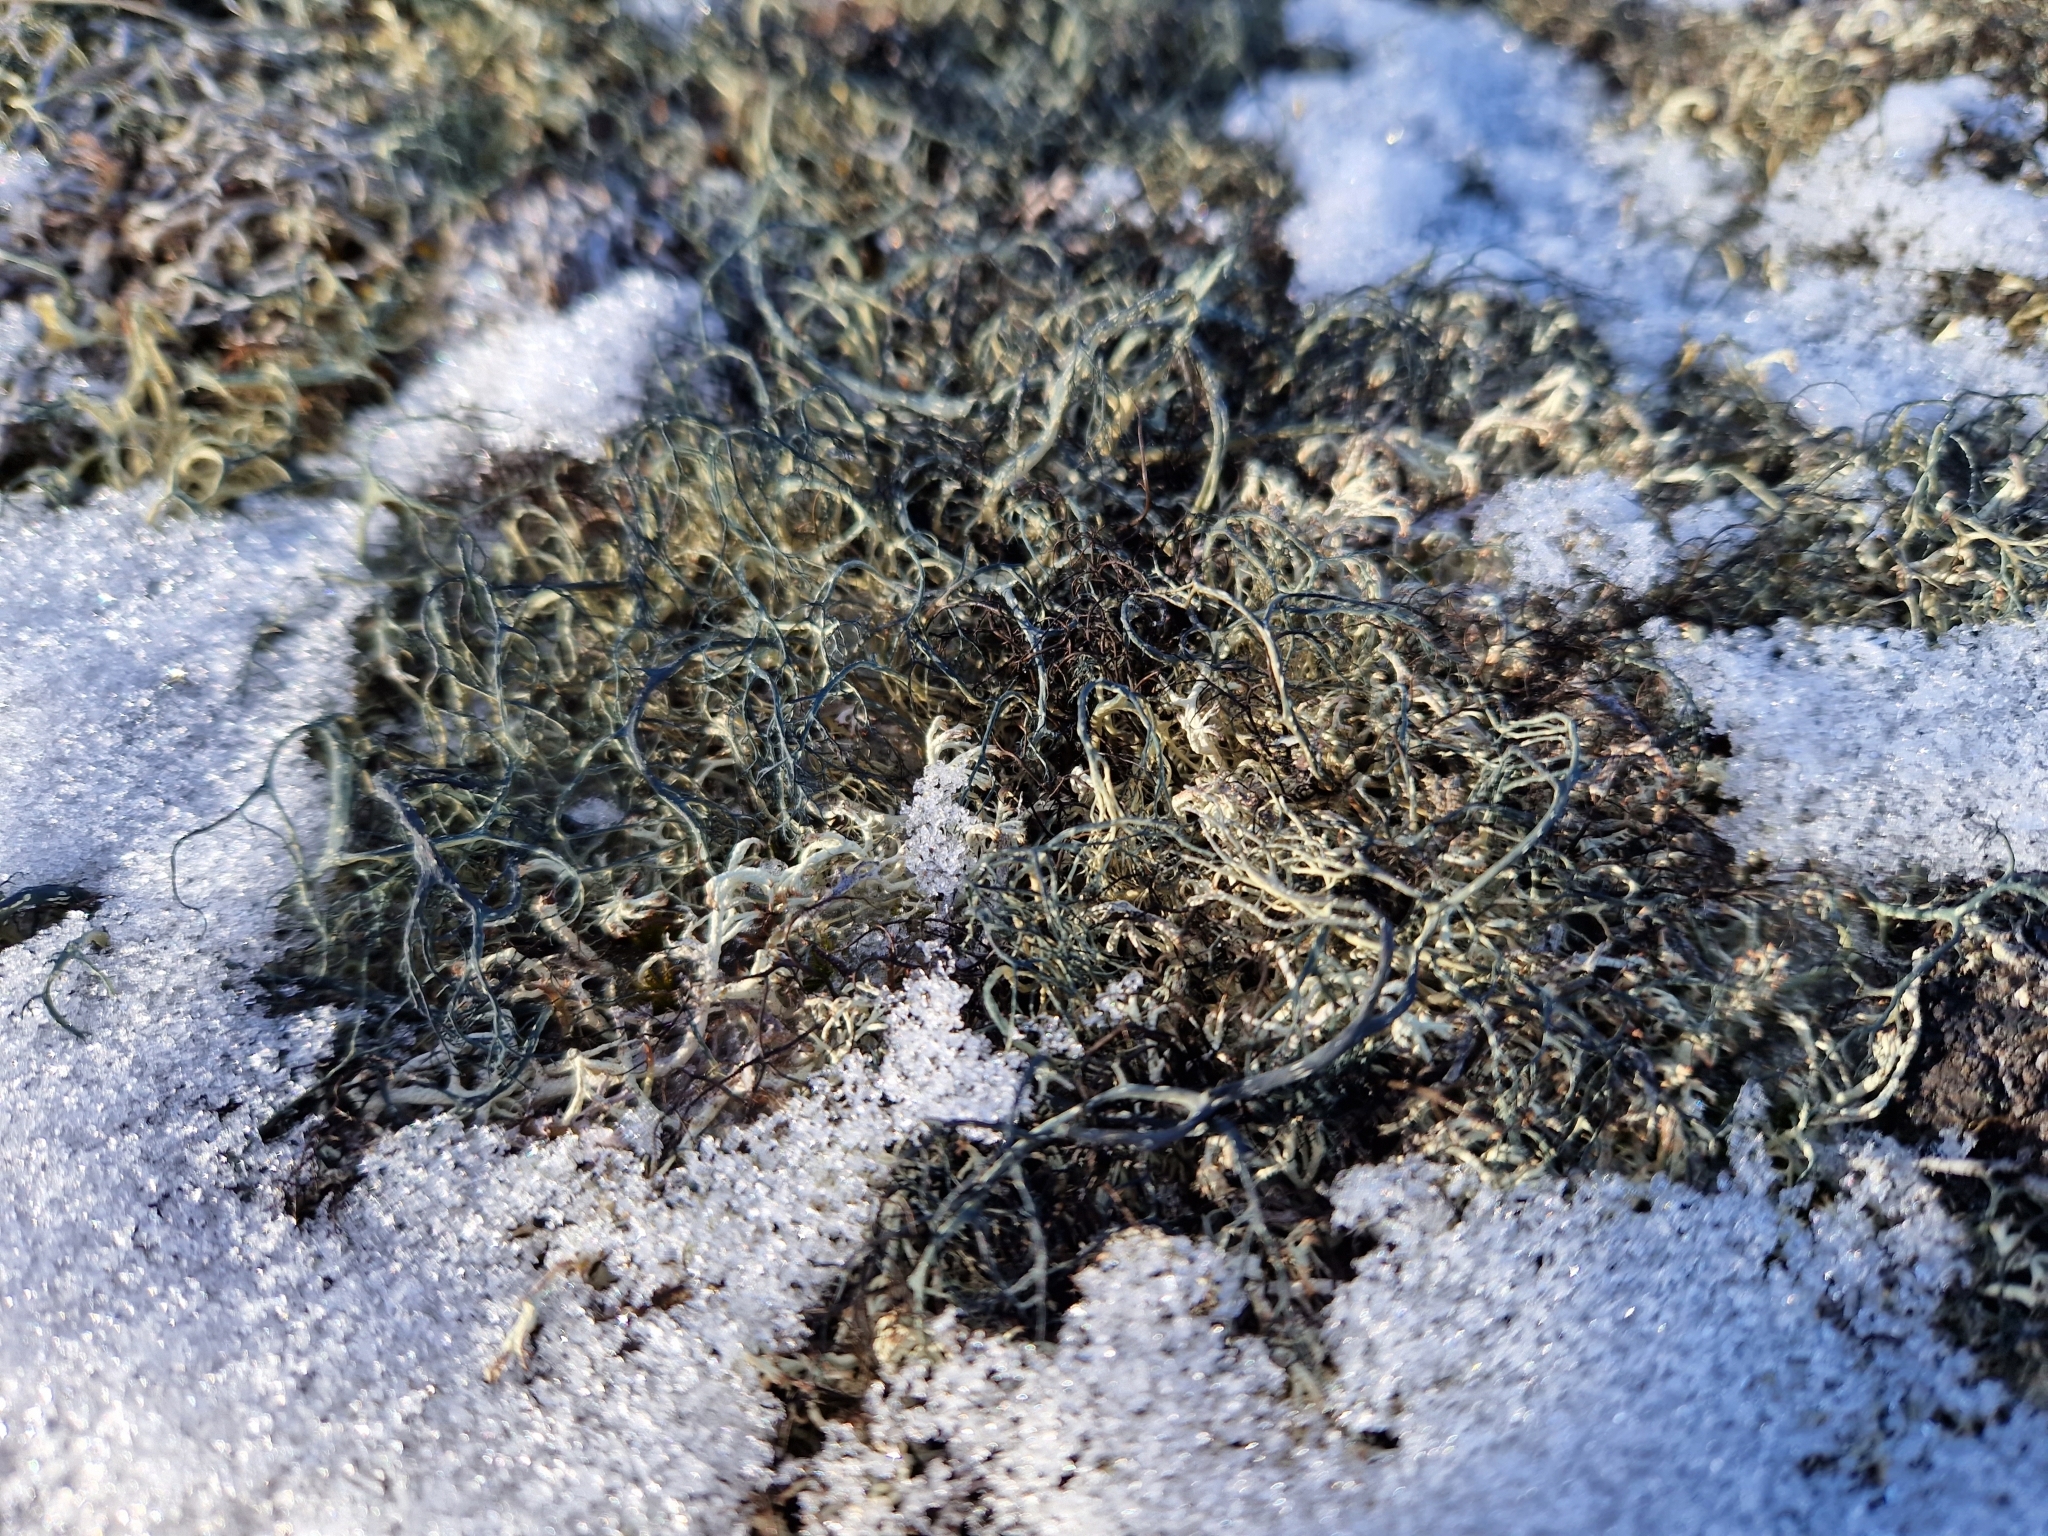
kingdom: Fungi
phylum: Ascomycota
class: Lecanoromycetes
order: Lecanorales
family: Parmeliaceae
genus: Alectoria
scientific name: Alectoria ochroleuca
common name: Alpine sulphur-tresses
